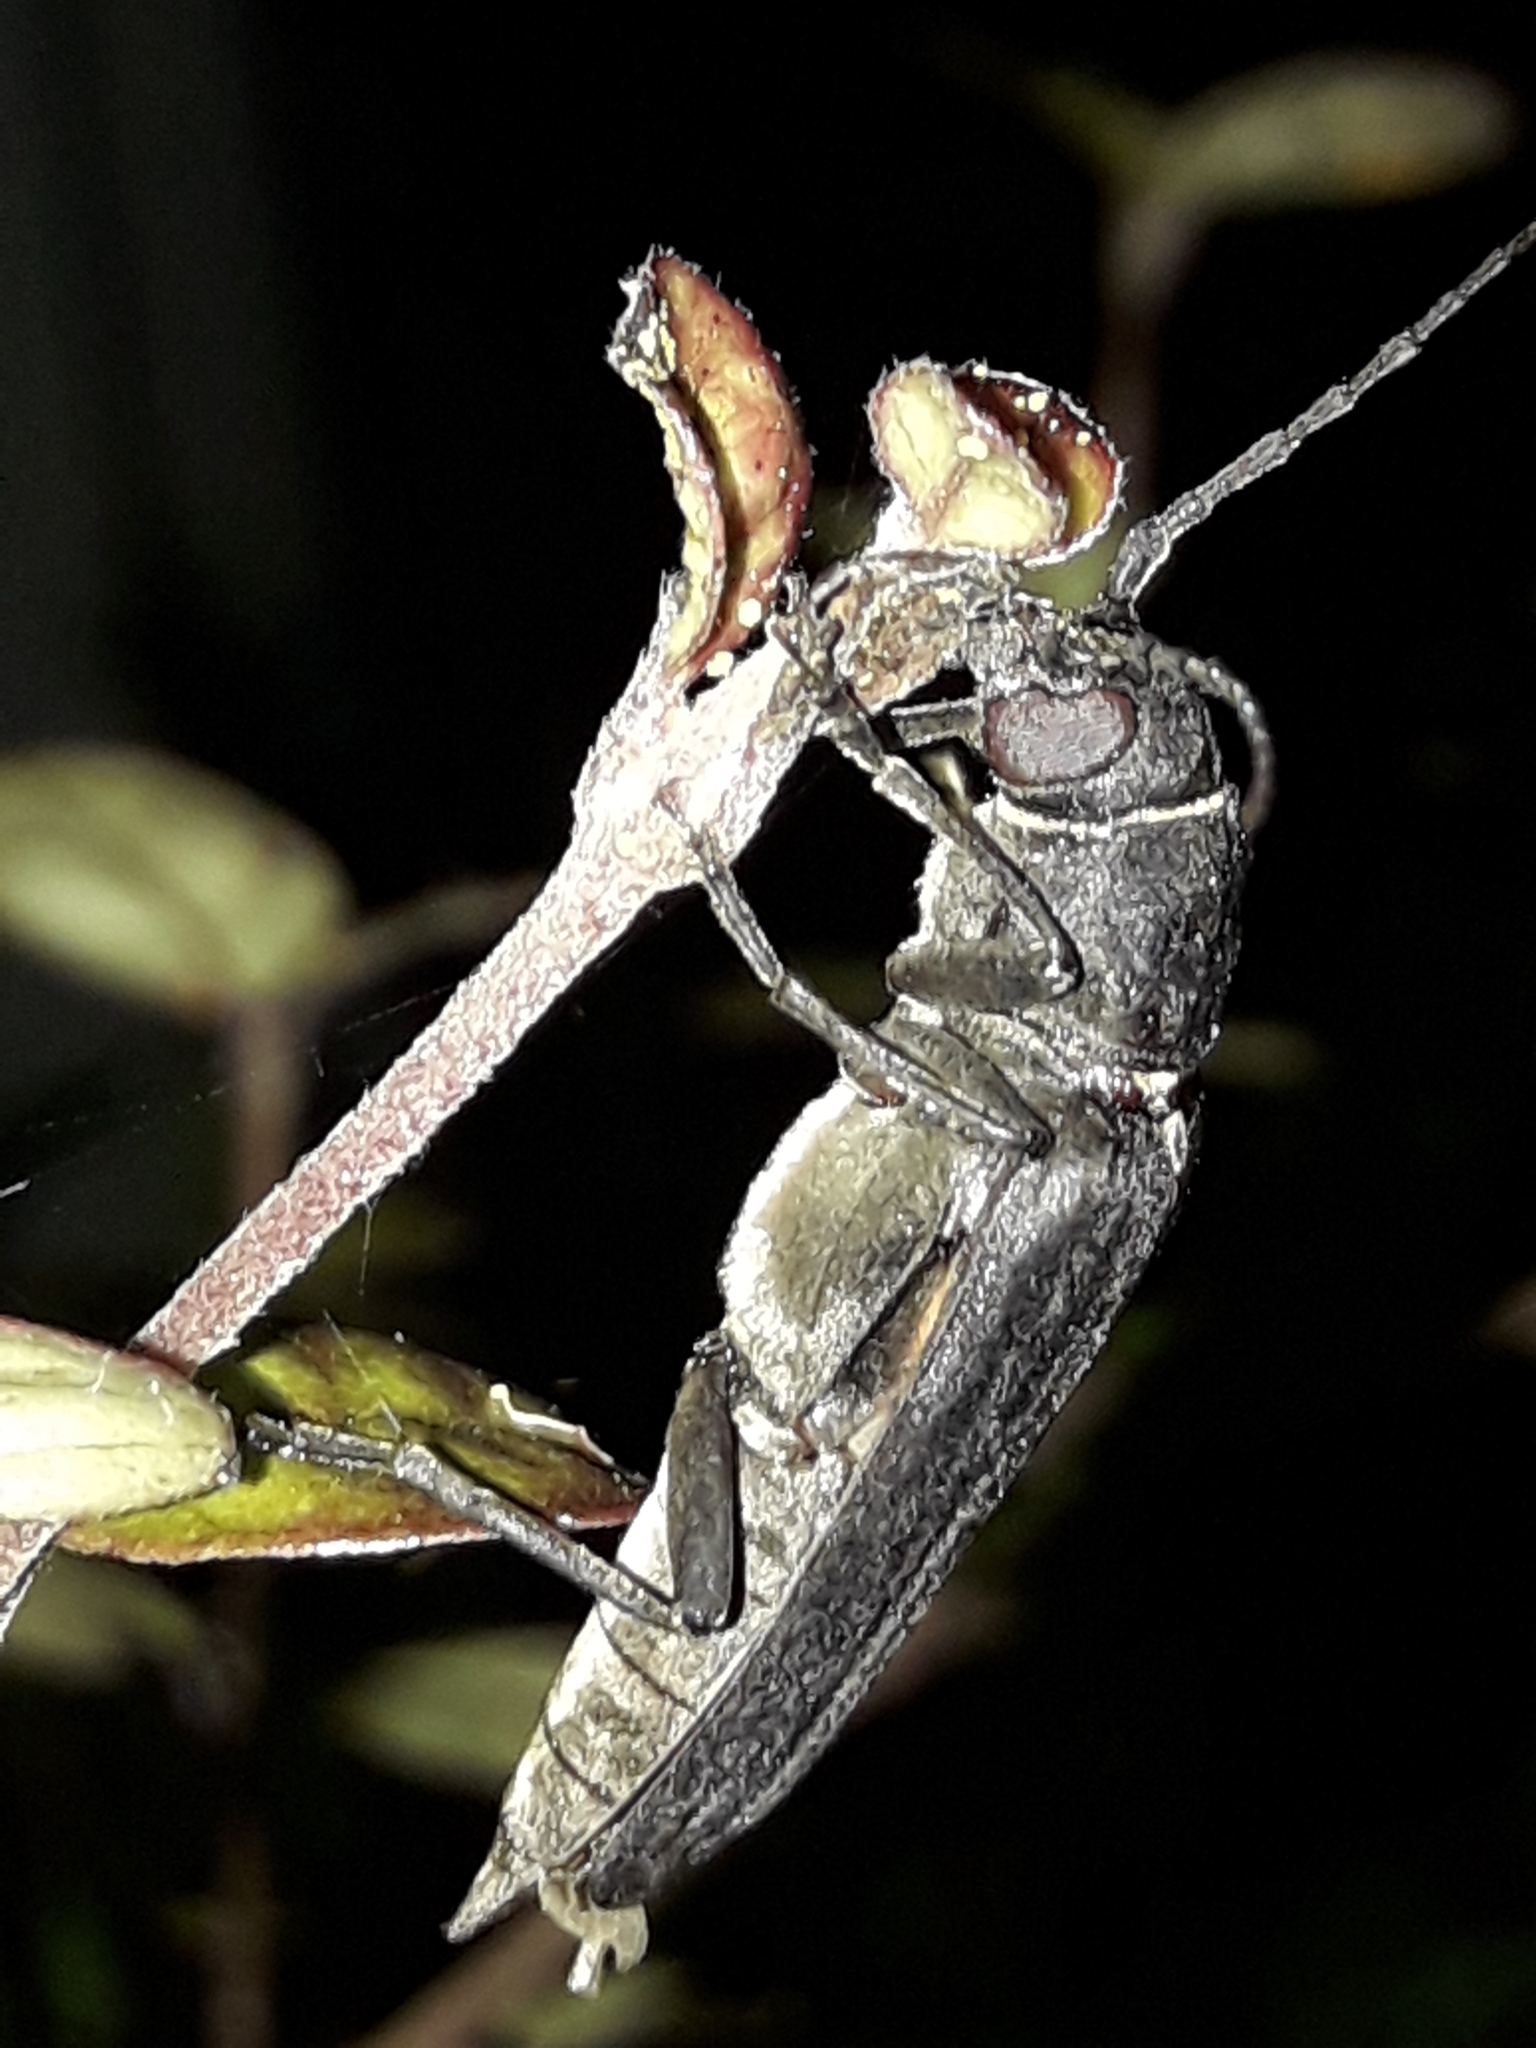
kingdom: Animalia
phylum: Arthropoda
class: Insecta
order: Coleoptera
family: Cerambycidae
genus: Arhopalus
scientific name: Arhopalus ferus
